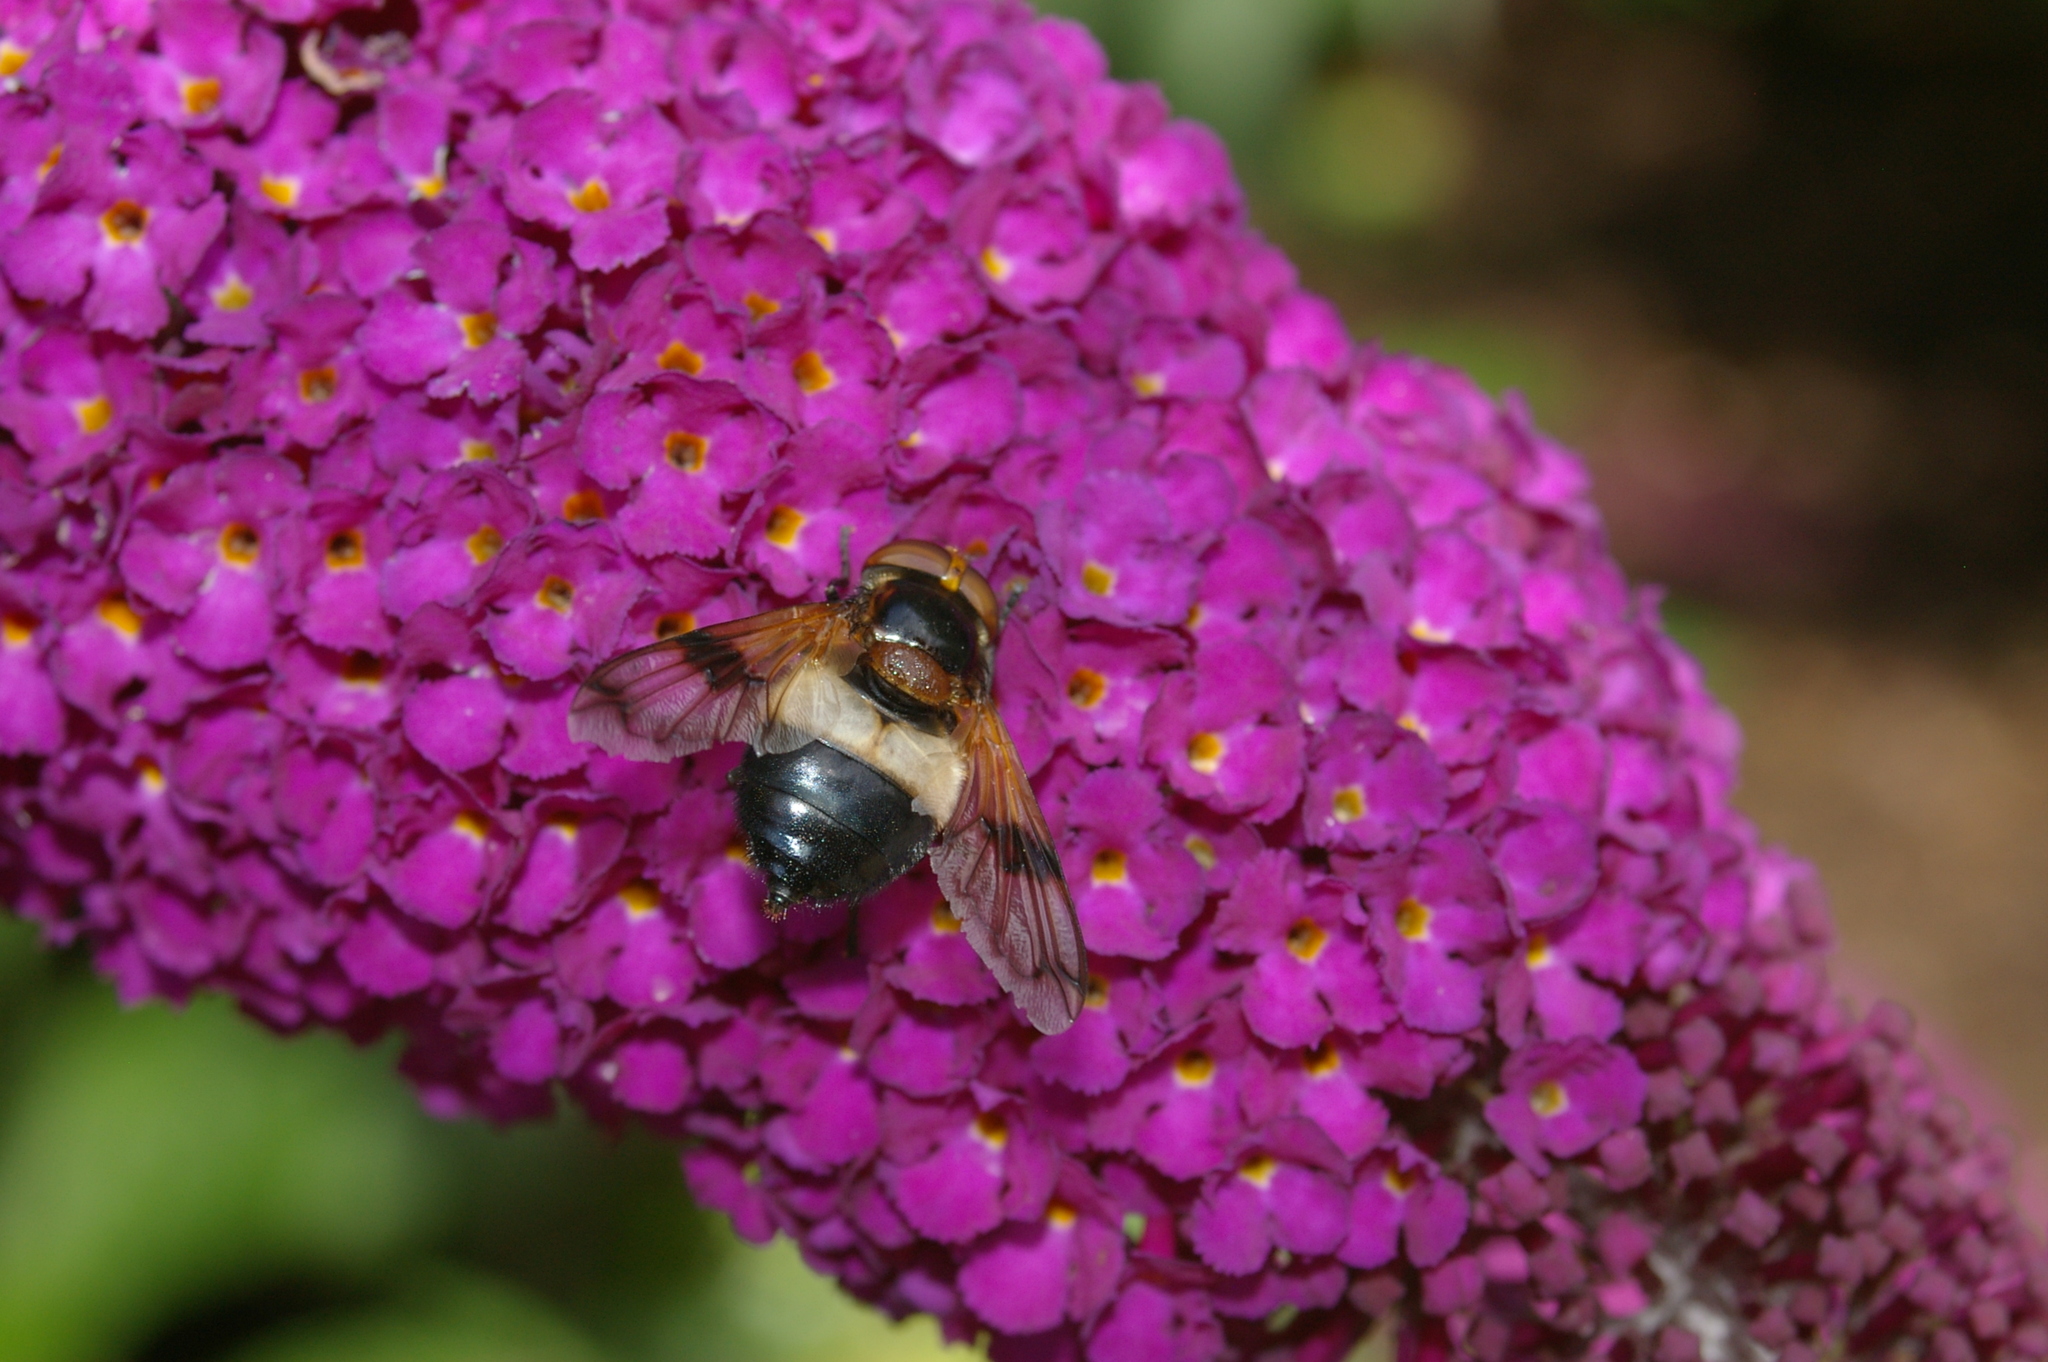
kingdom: Animalia
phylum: Arthropoda
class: Insecta
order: Diptera
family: Syrphidae
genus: Volucella
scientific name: Volucella pellucens
